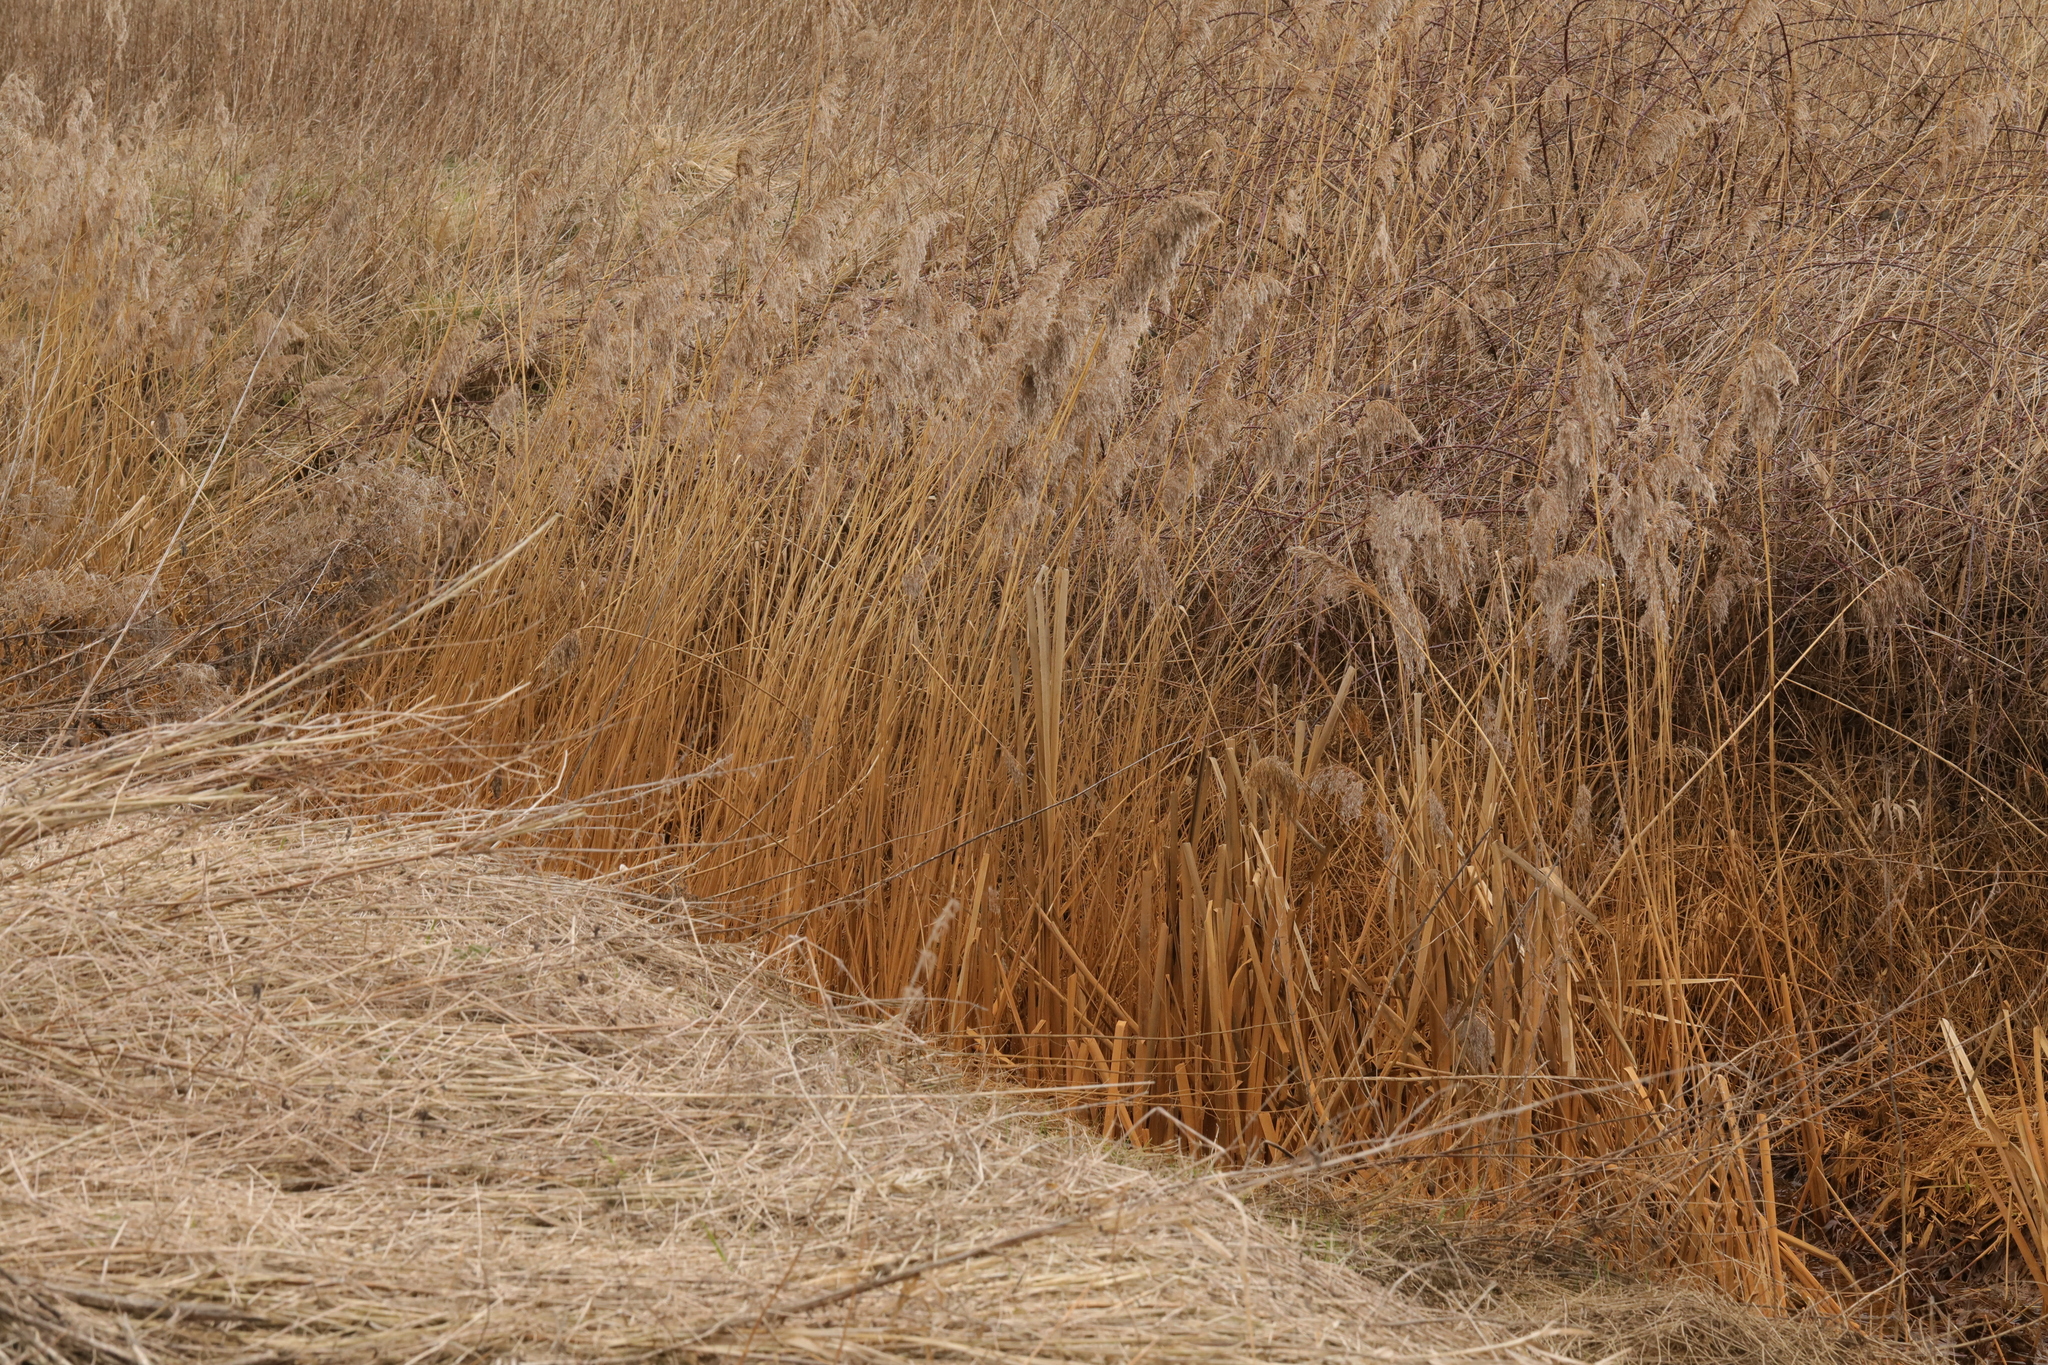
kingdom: Plantae
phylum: Tracheophyta
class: Liliopsida
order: Poales
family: Poaceae
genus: Phragmites
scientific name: Phragmites australis
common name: Common reed
